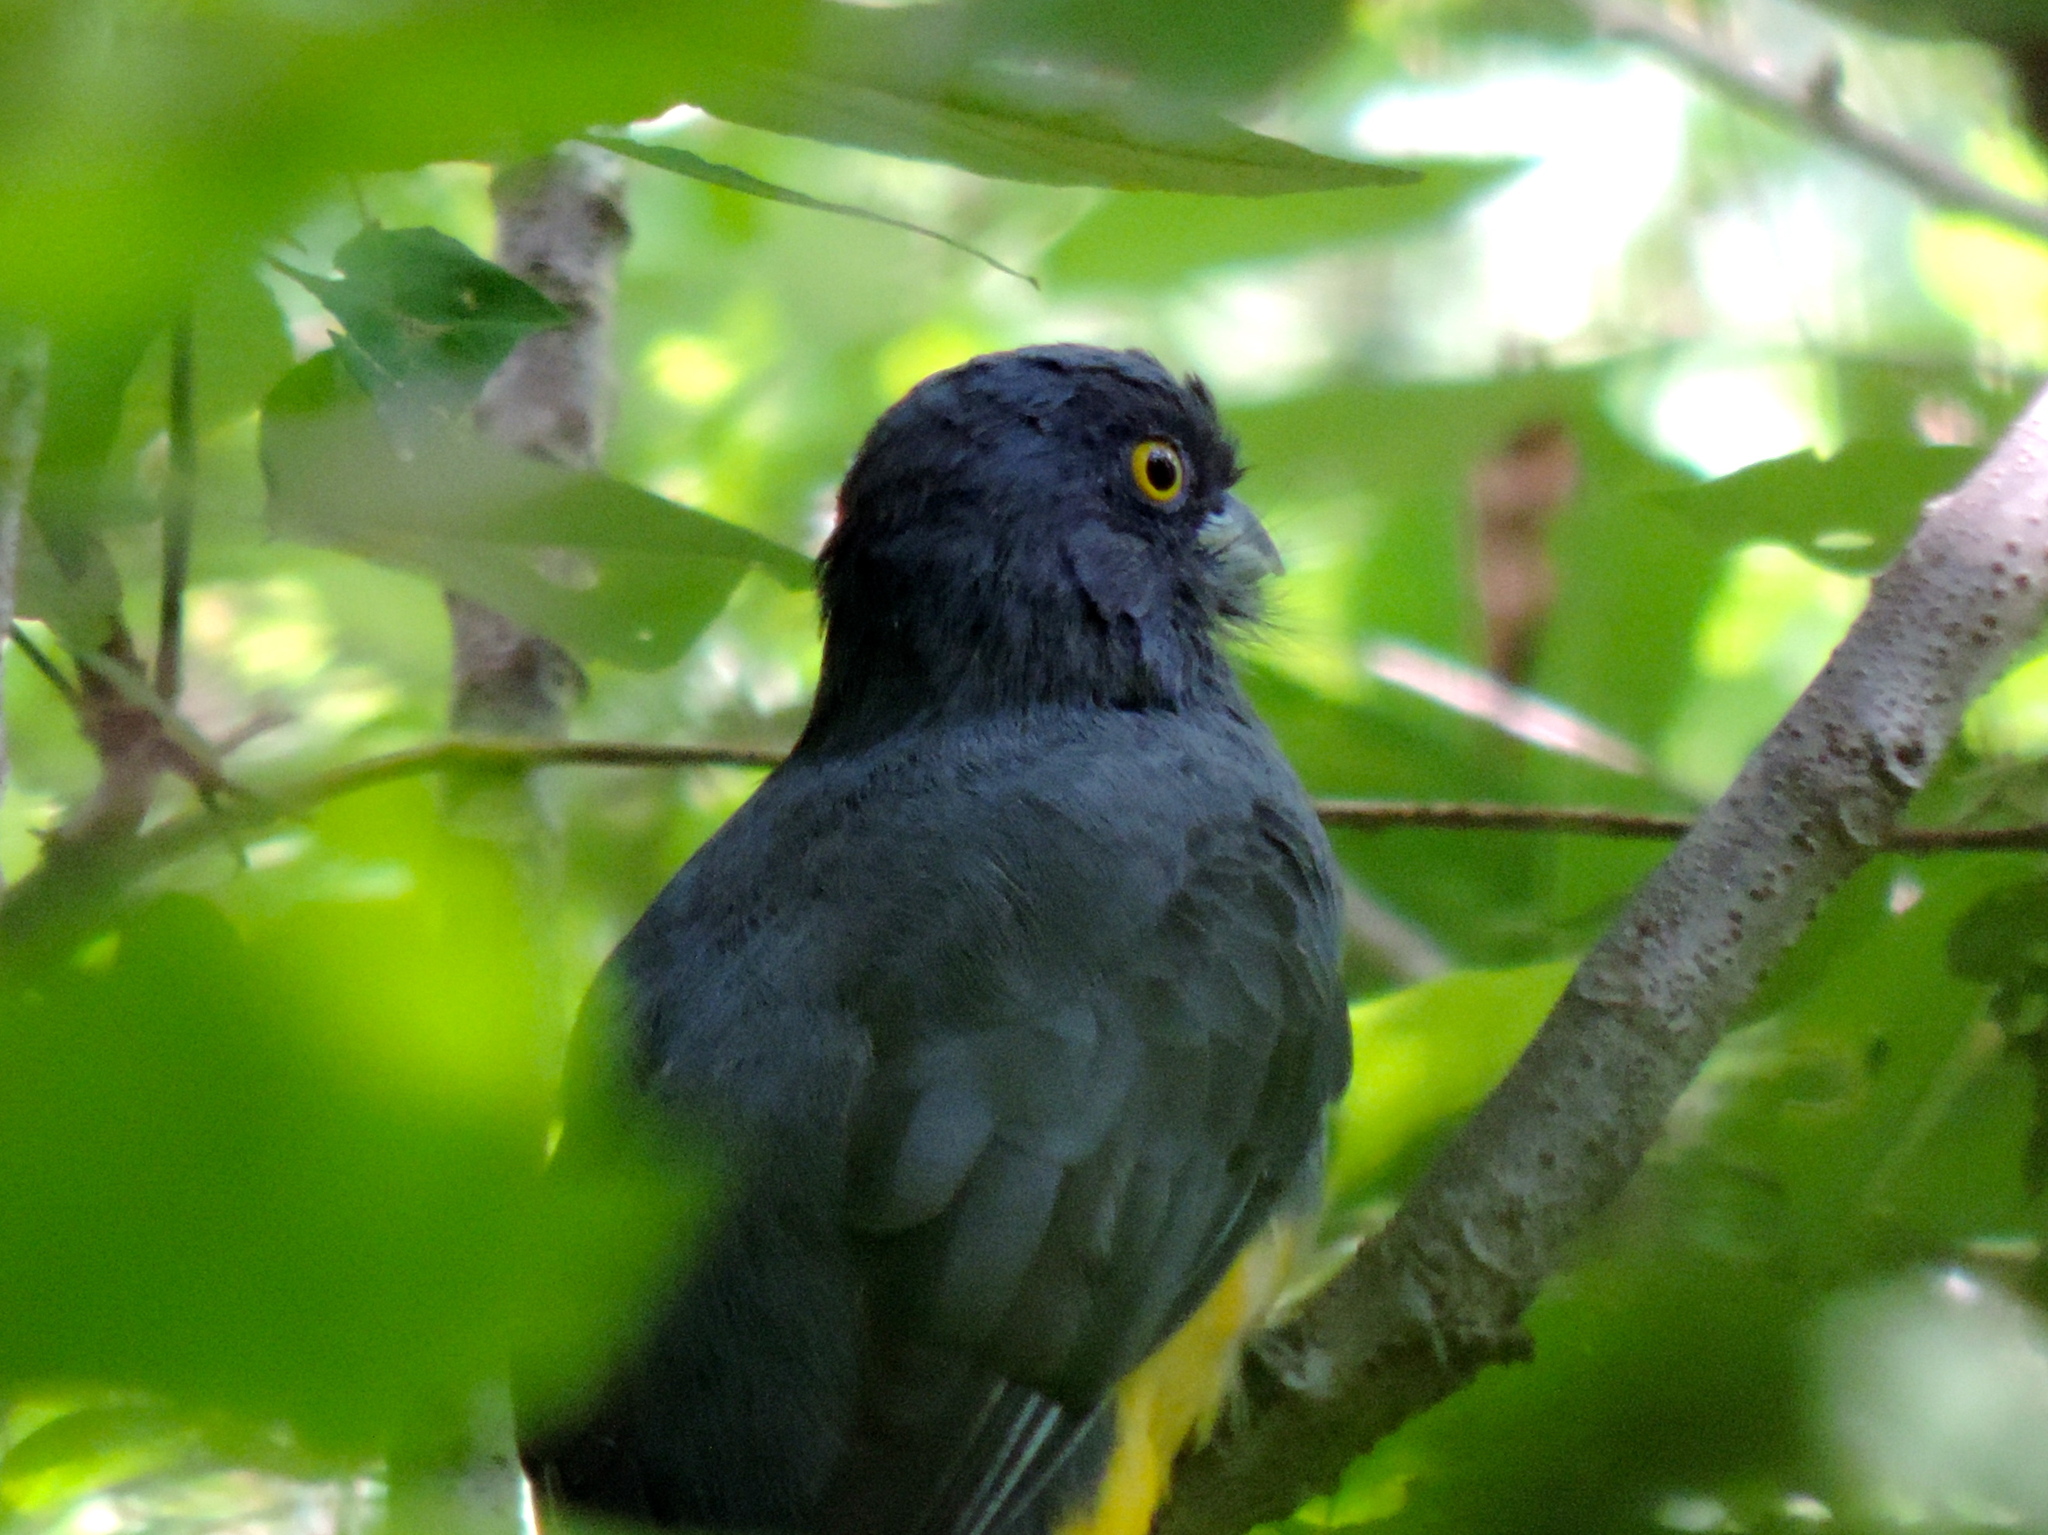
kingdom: Animalia
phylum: Chordata
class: Aves
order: Trogoniformes
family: Trogonidae
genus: Trogon
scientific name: Trogon citreolus
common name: Citreoline trogon
